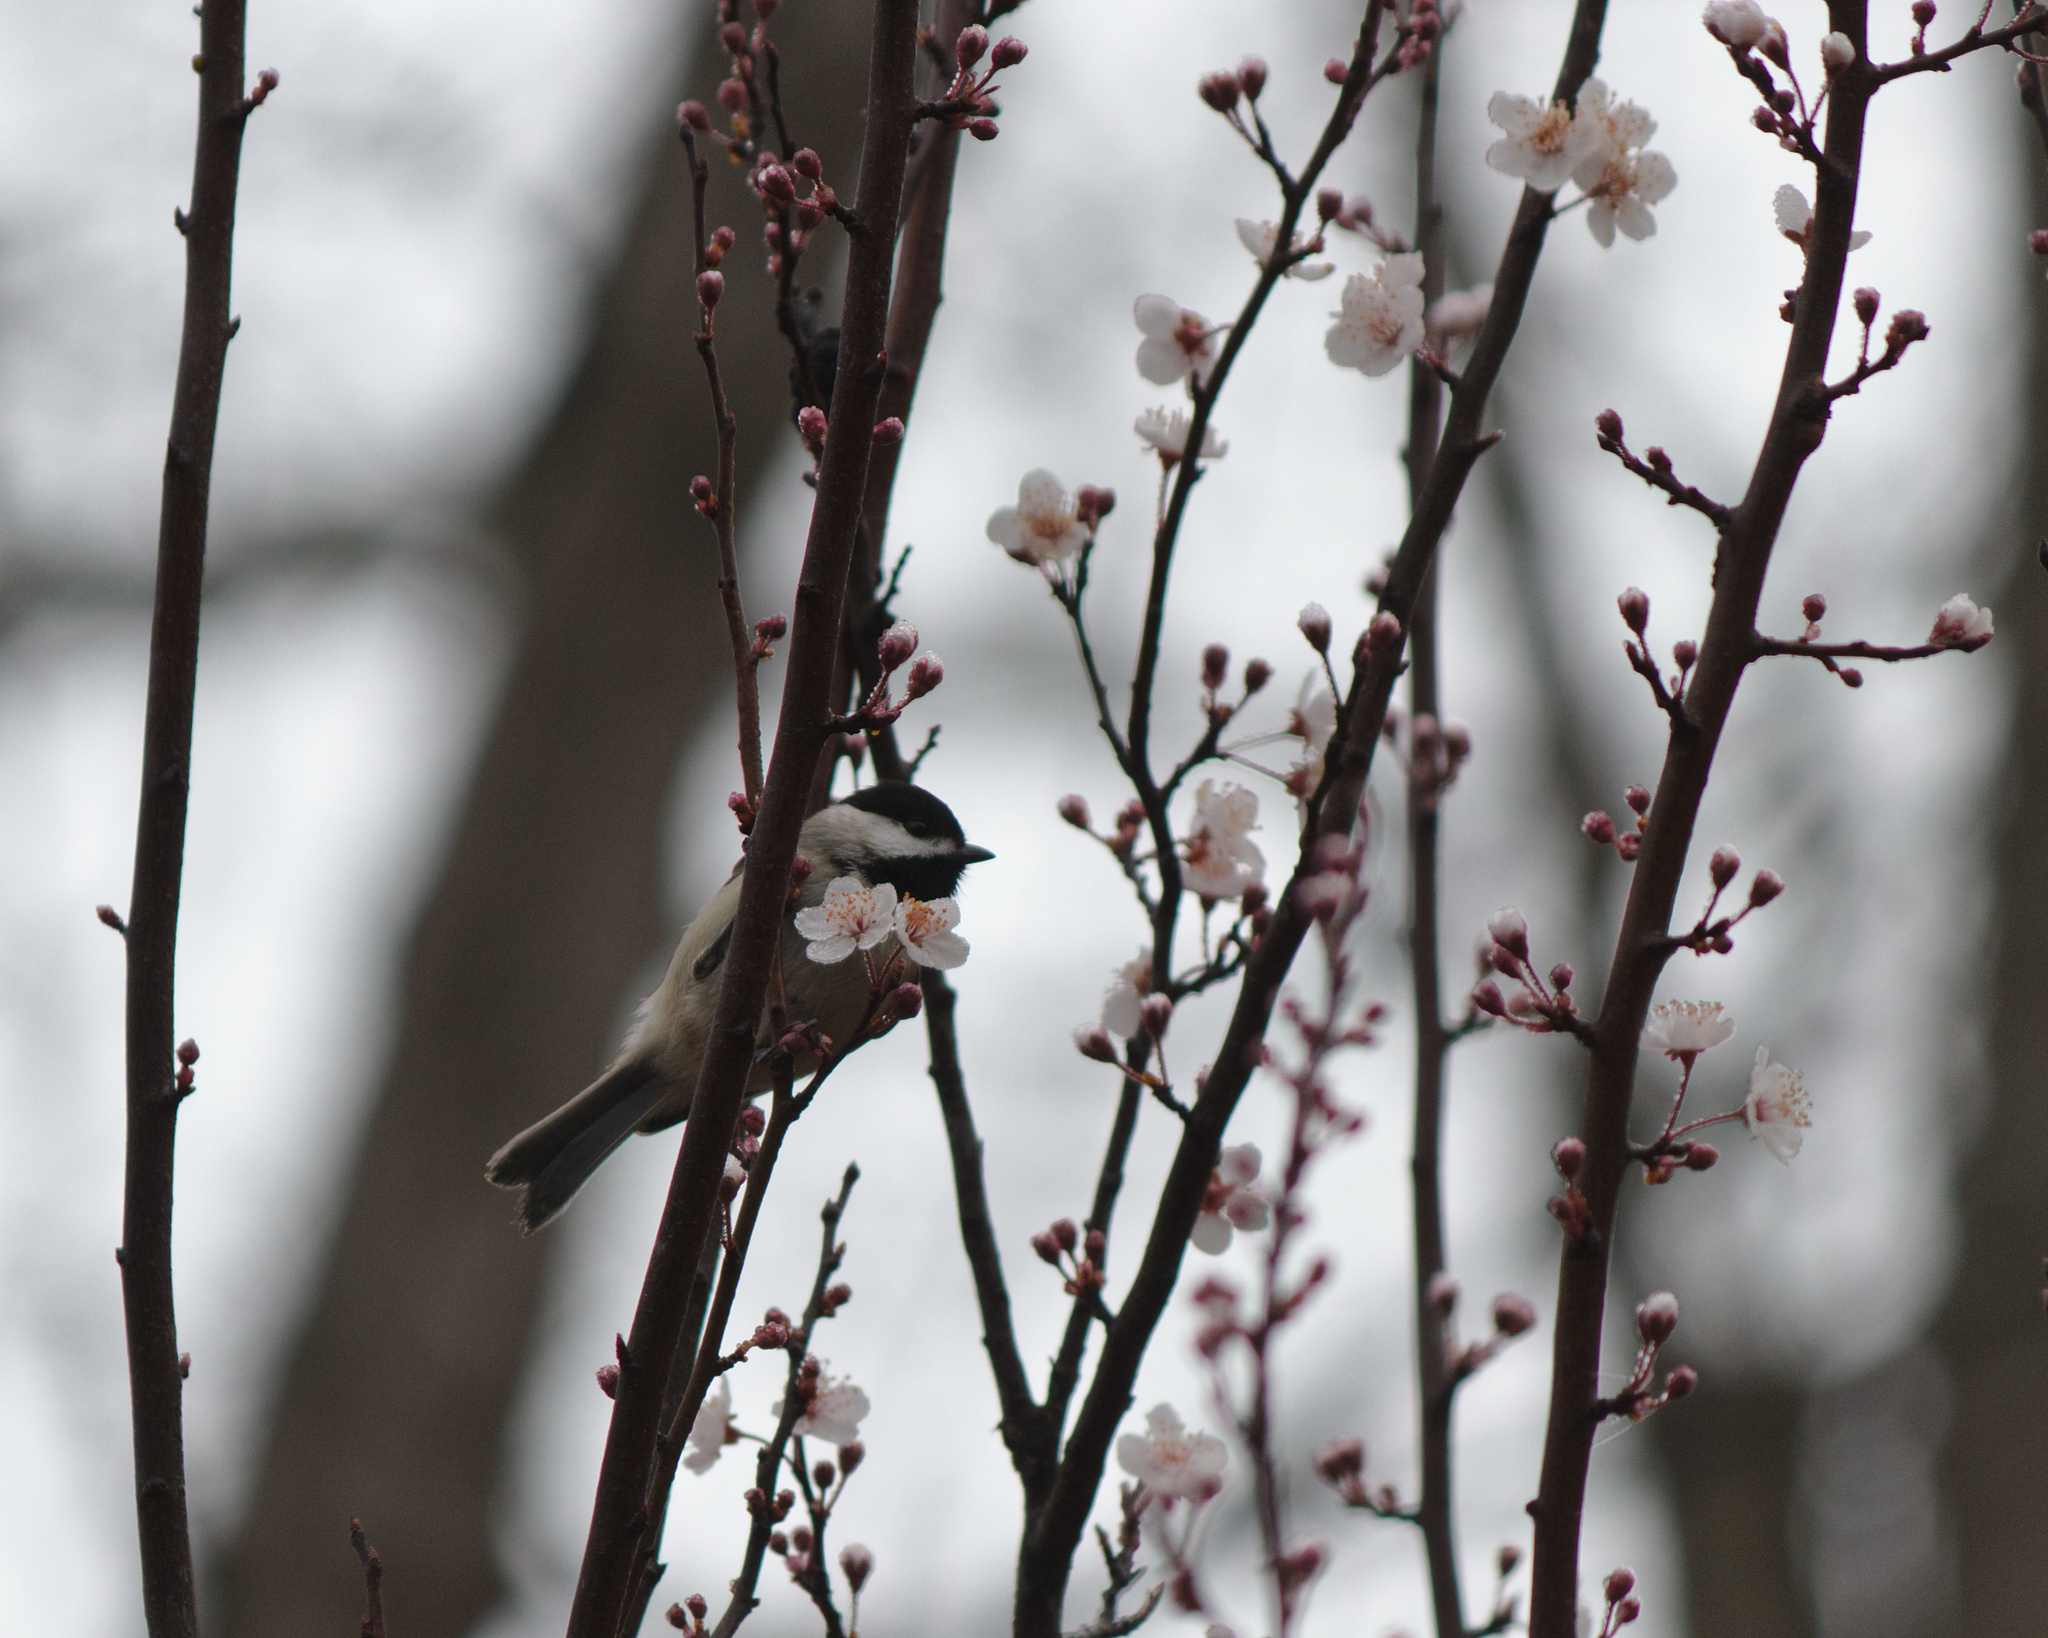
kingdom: Animalia
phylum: Chordata
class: Aves
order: Passeriformes
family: Paridae
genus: Poecile
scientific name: Poecile carolinensis
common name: Carolina chickadee
